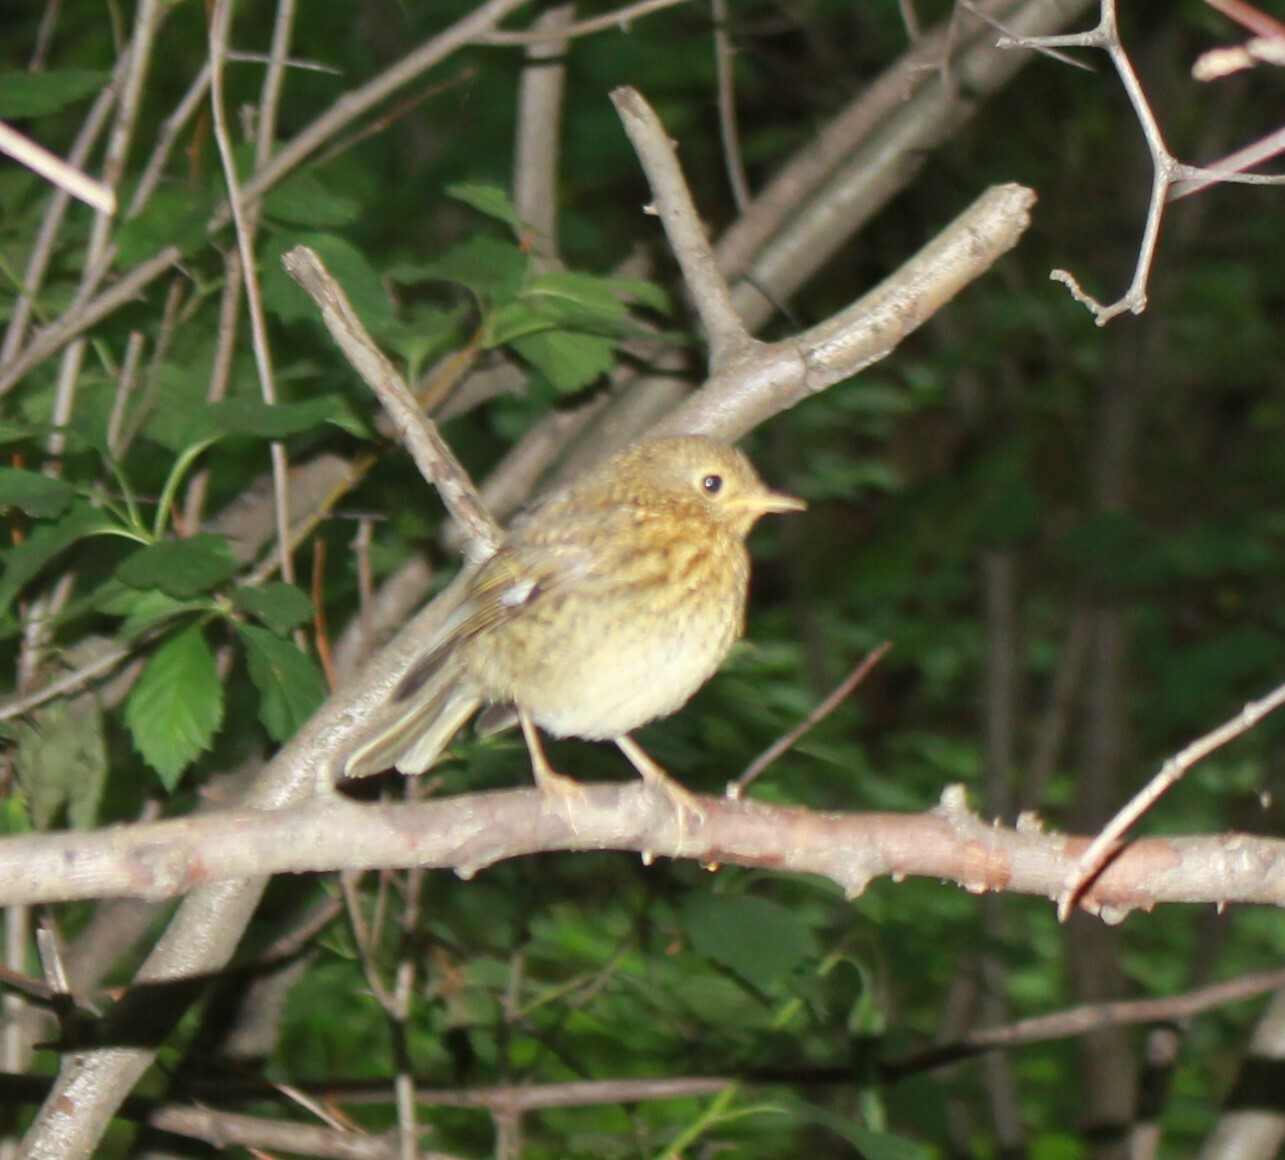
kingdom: Animalia
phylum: Chordata
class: Aves
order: Passeriformes
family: Muscicapidae
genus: Erithacus
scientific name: Erithacus rubecula
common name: European robin
